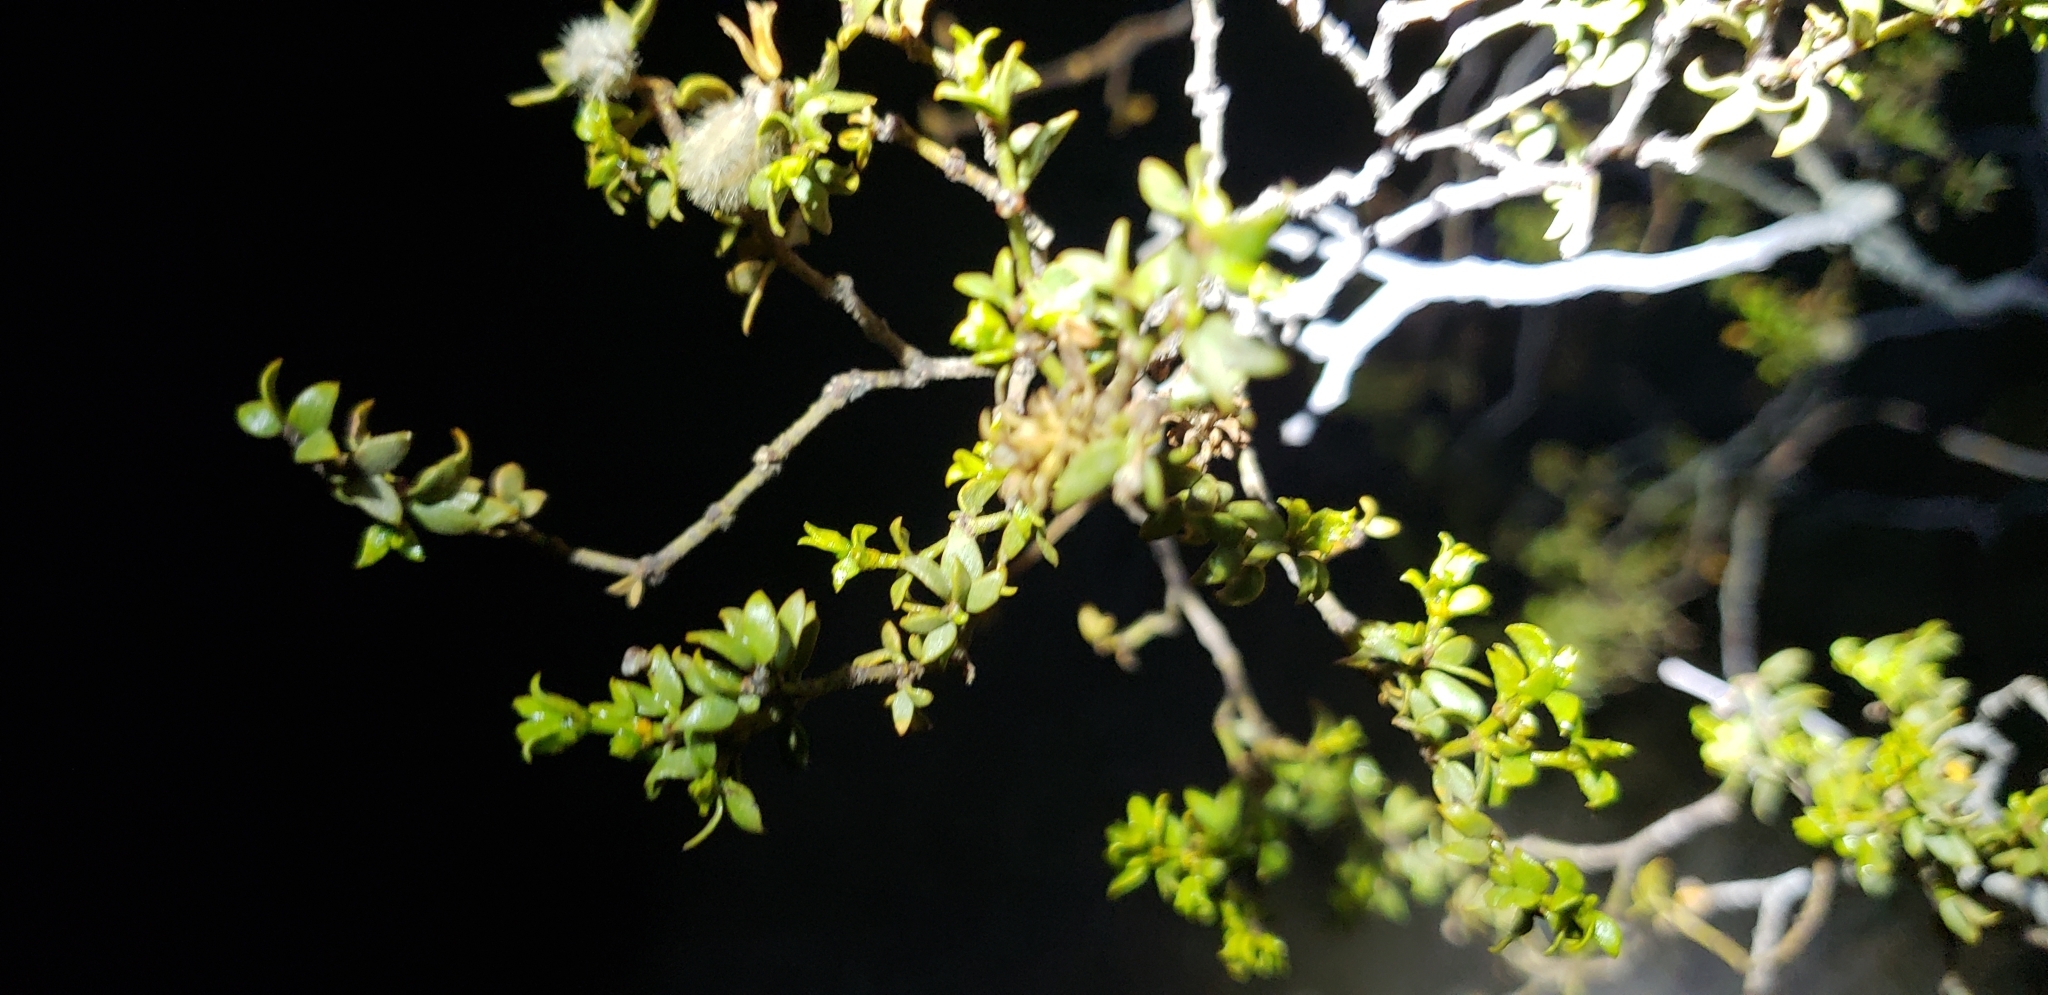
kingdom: Plantae
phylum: Tracheophyta
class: Magnoliopsida
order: Zygophyllales
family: Zygophyllaceae
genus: Larrea
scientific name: Larrea tridentata
